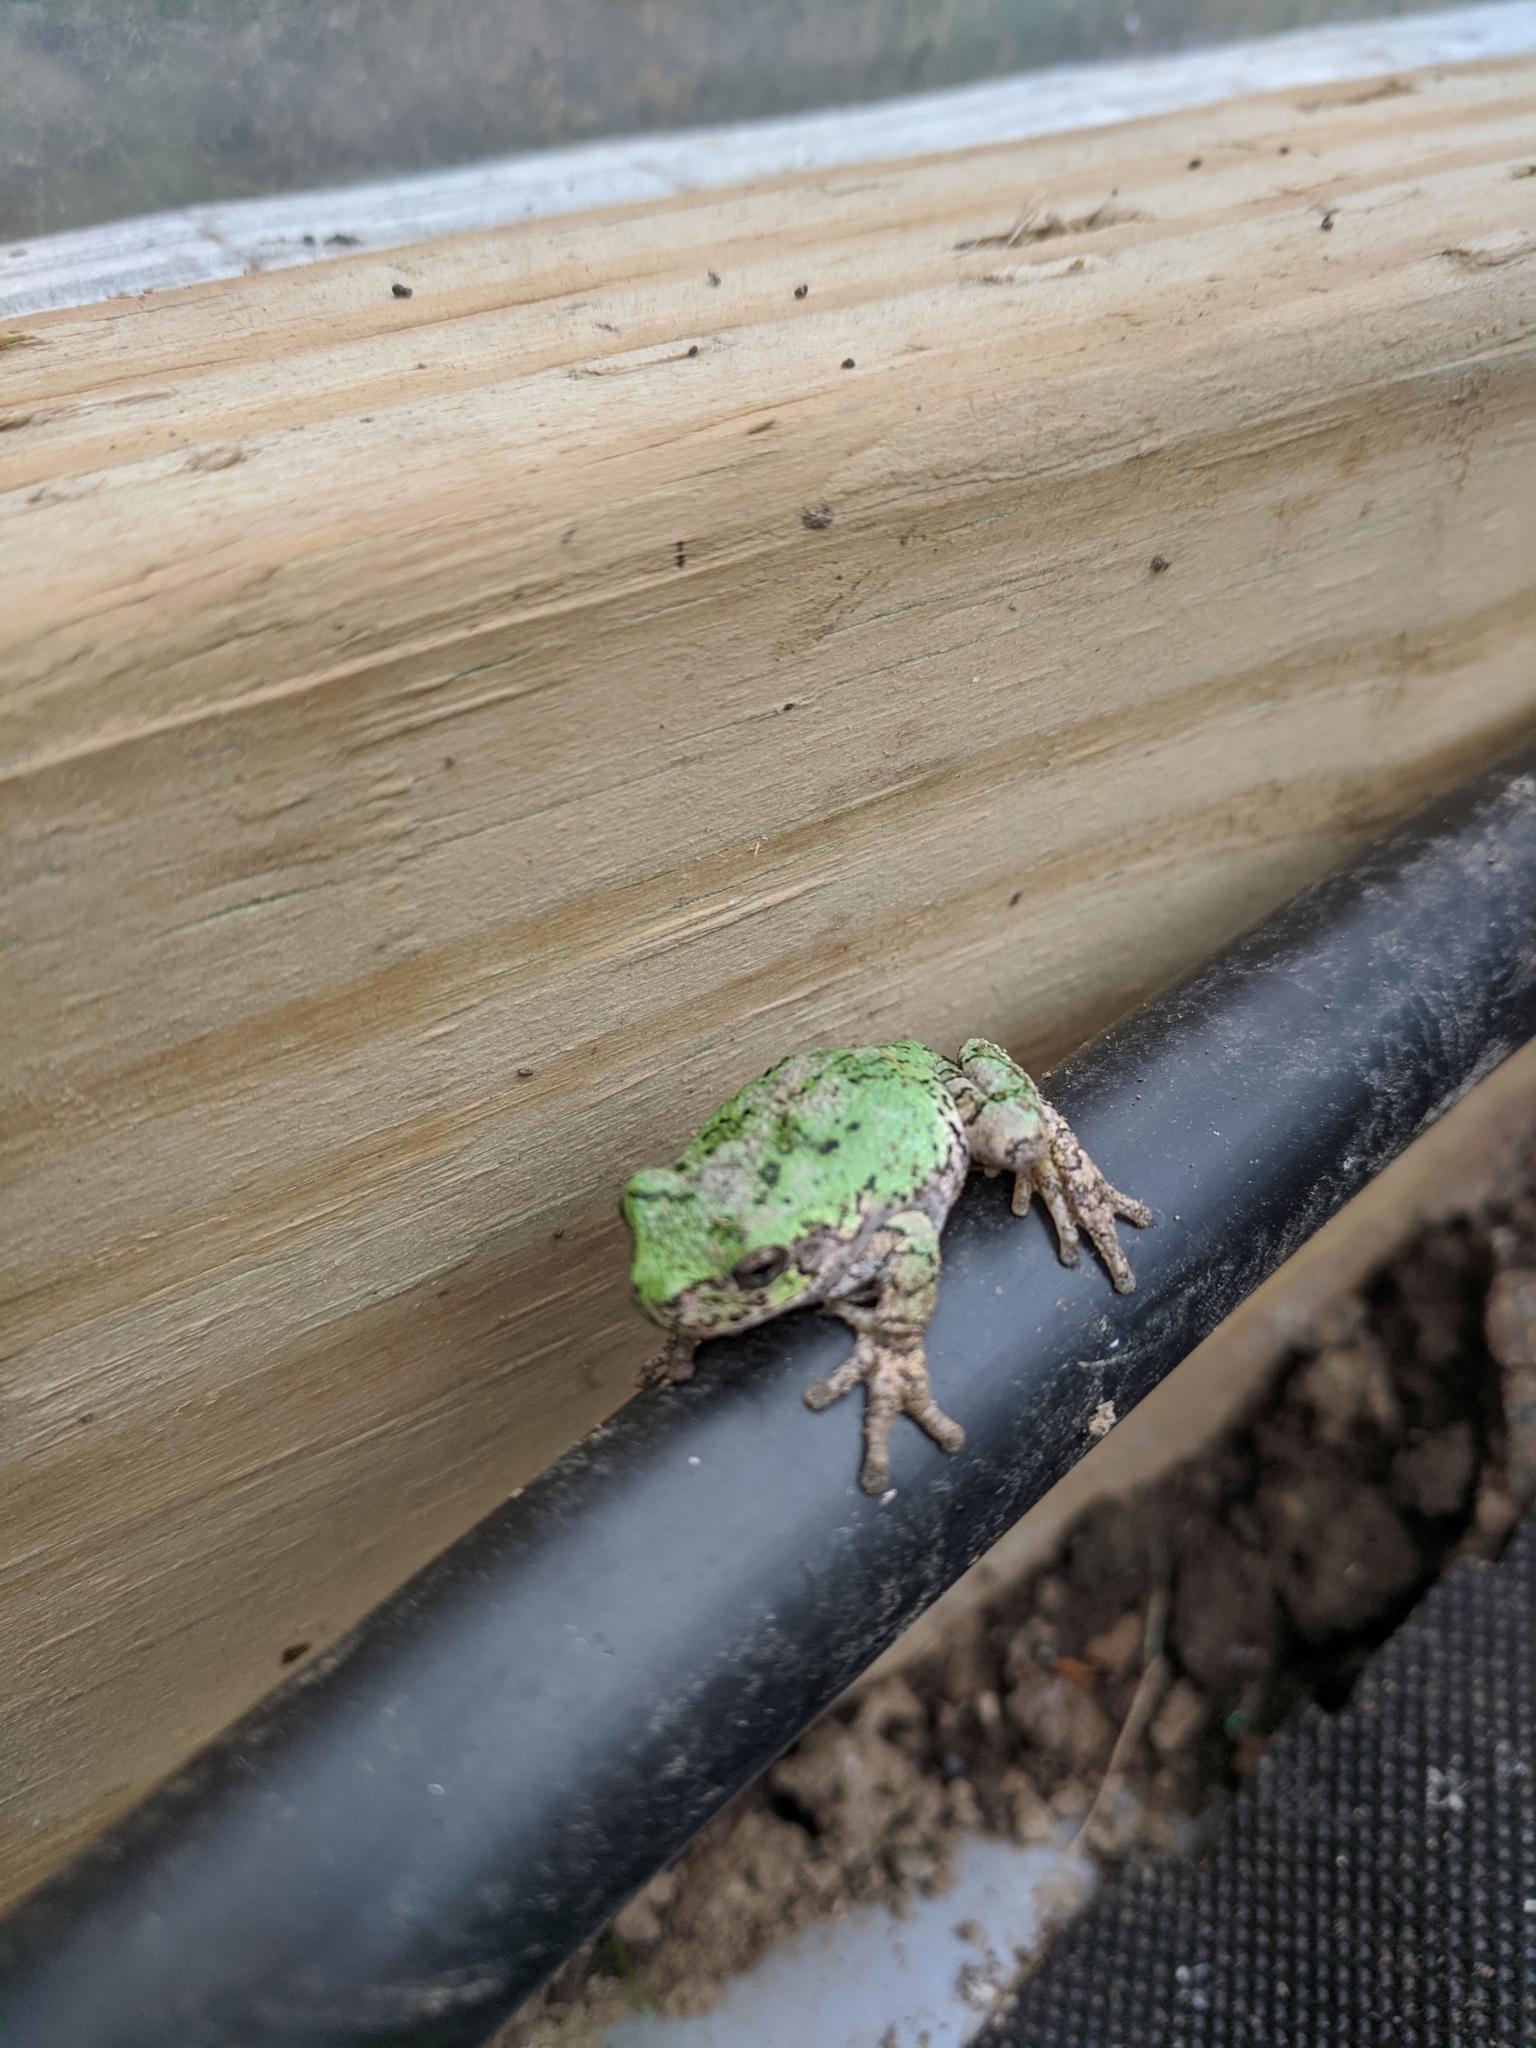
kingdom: Animalia
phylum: Chordata
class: Amphibia
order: Anura
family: Hylidae
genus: Dryophytes
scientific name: Dryophytes versicolor
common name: Gray treefrog
